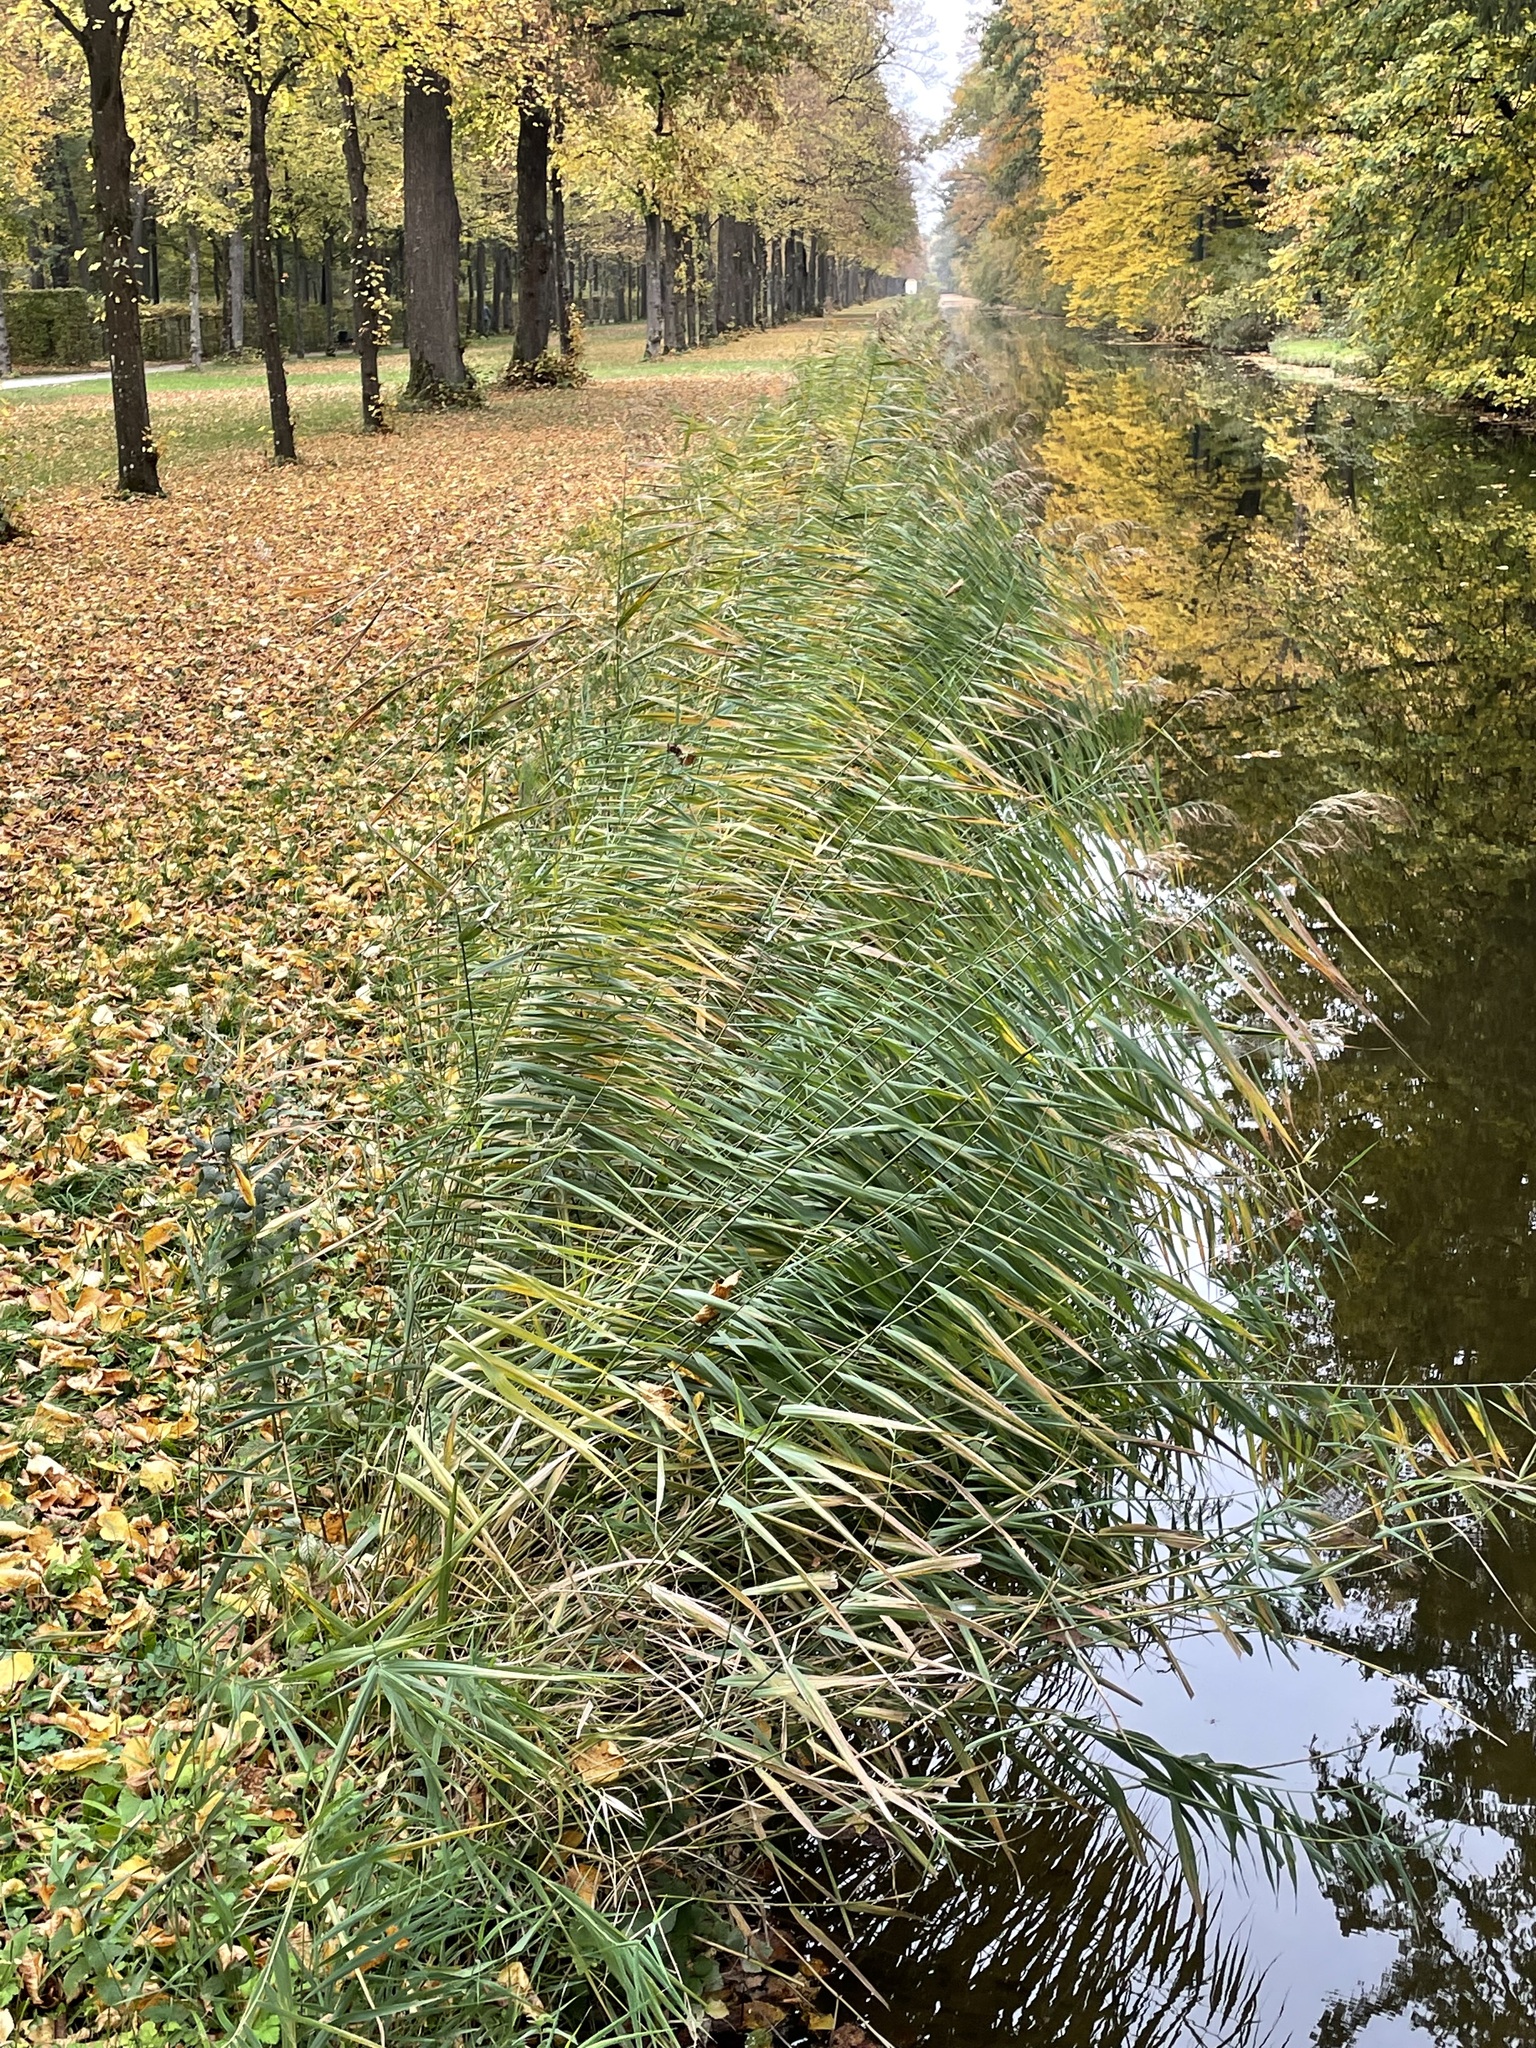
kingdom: Plantae
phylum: Tracheophyta
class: Liliopsida
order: Poales
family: Poaceae
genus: Phragmites
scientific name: Phragmites australis
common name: Common reed
